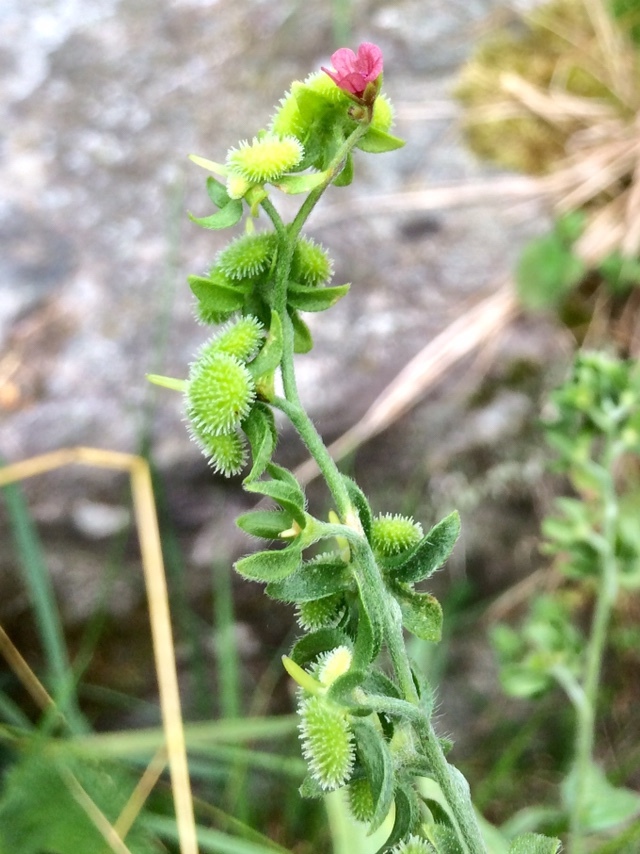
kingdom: Plantae
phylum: Tracheophyta
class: Magnoliopsida
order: Boraginales
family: Boraginaceae
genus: Cynoglossum
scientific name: Cynoglossum officinale
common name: Hound's-tongue
